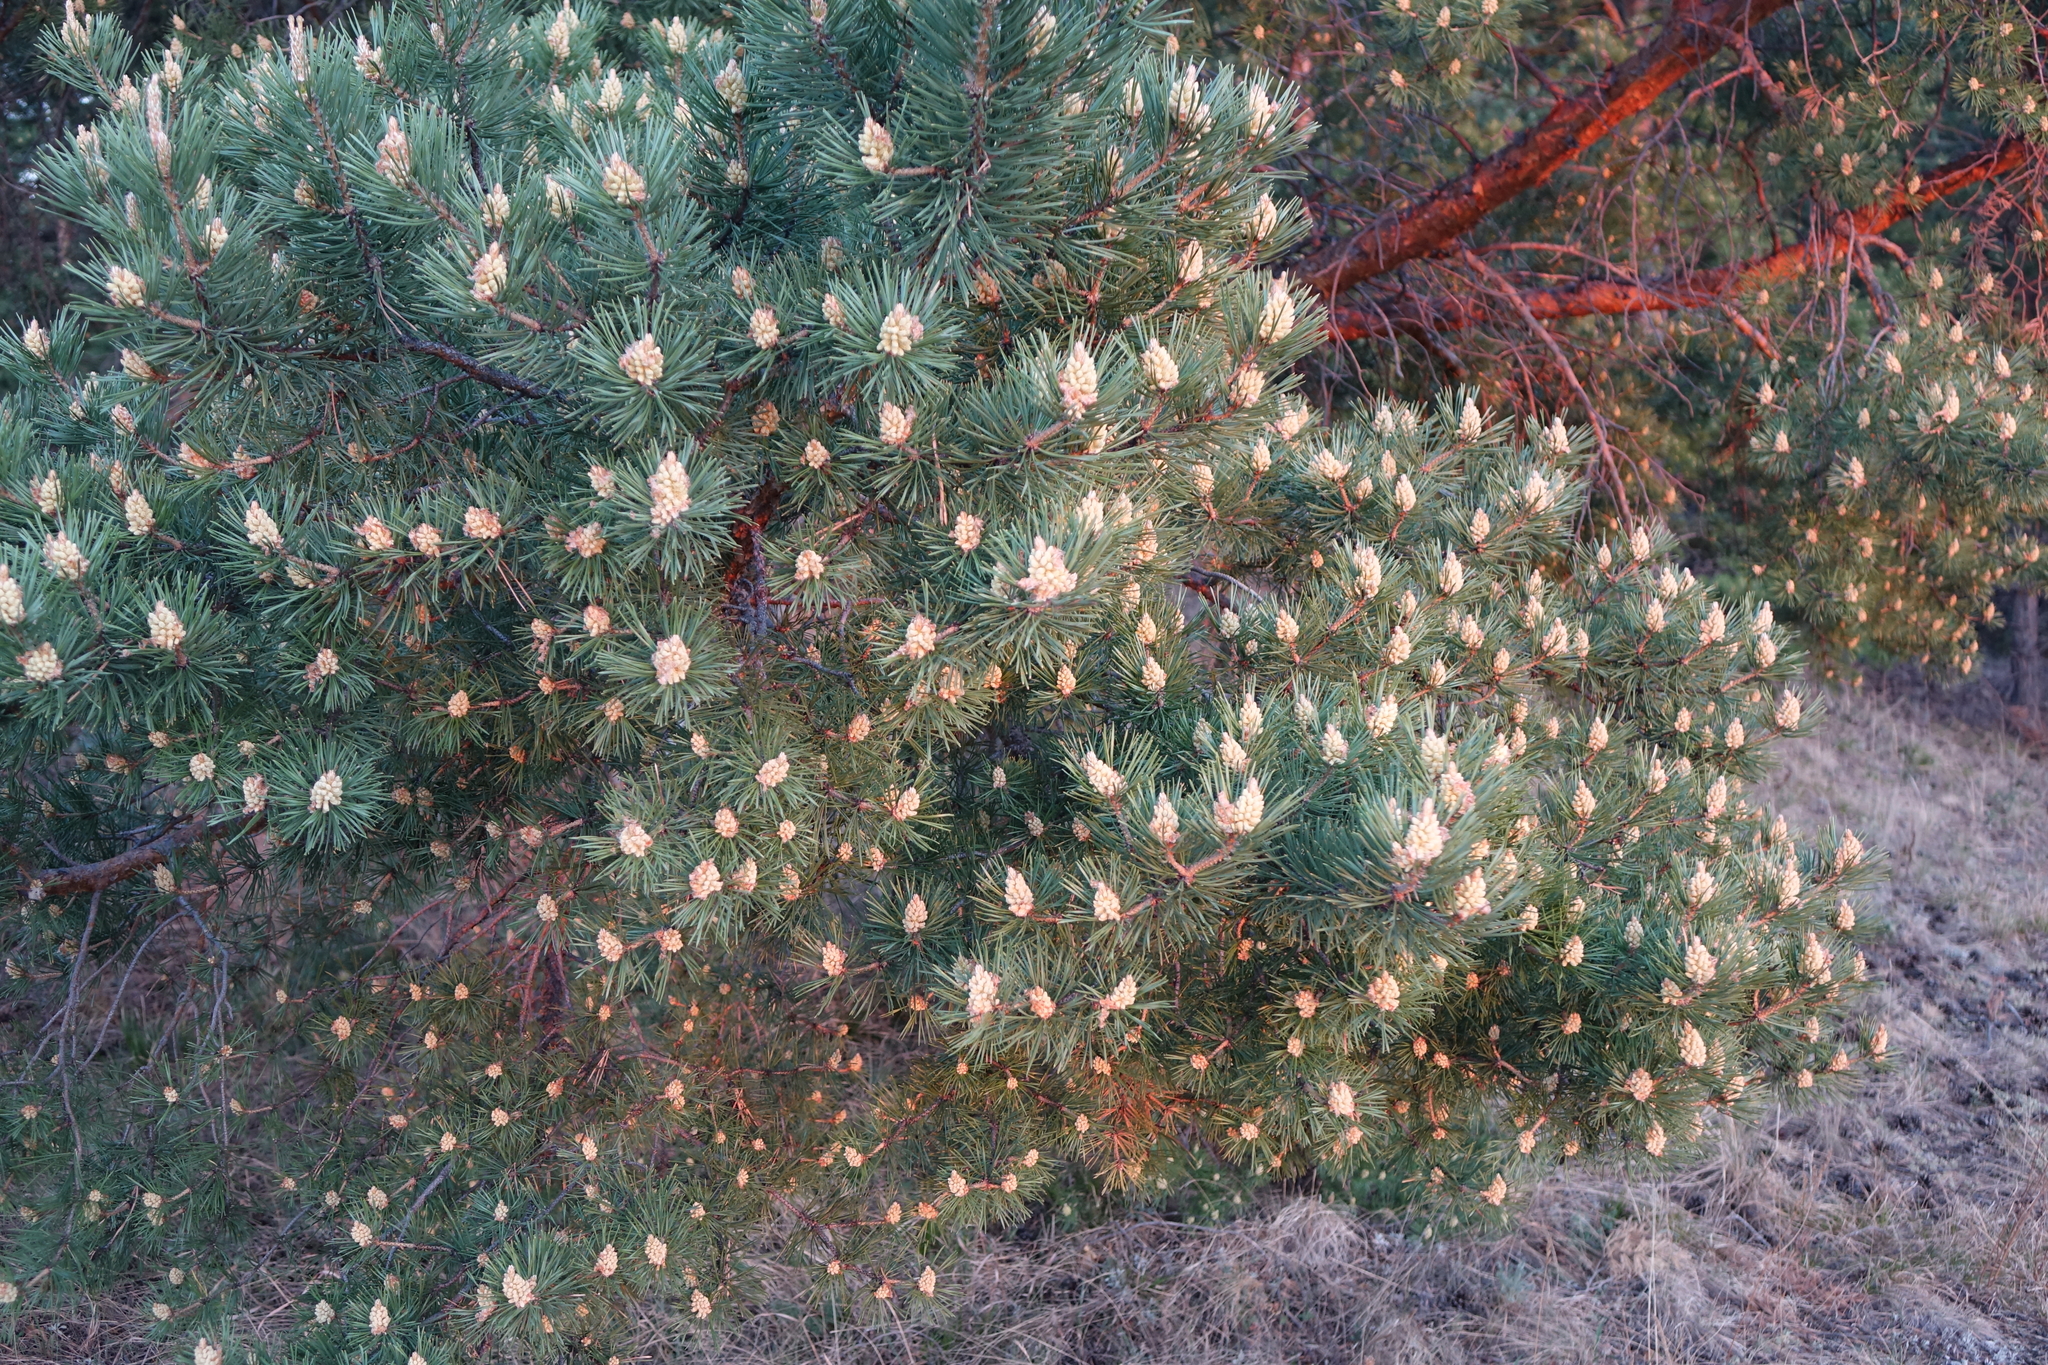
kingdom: Plantae
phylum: Tracheophyta
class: Pinopsida
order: Pinales
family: Pinaceae
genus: Pinus
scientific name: Pinus sylvestris
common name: Scots pine
